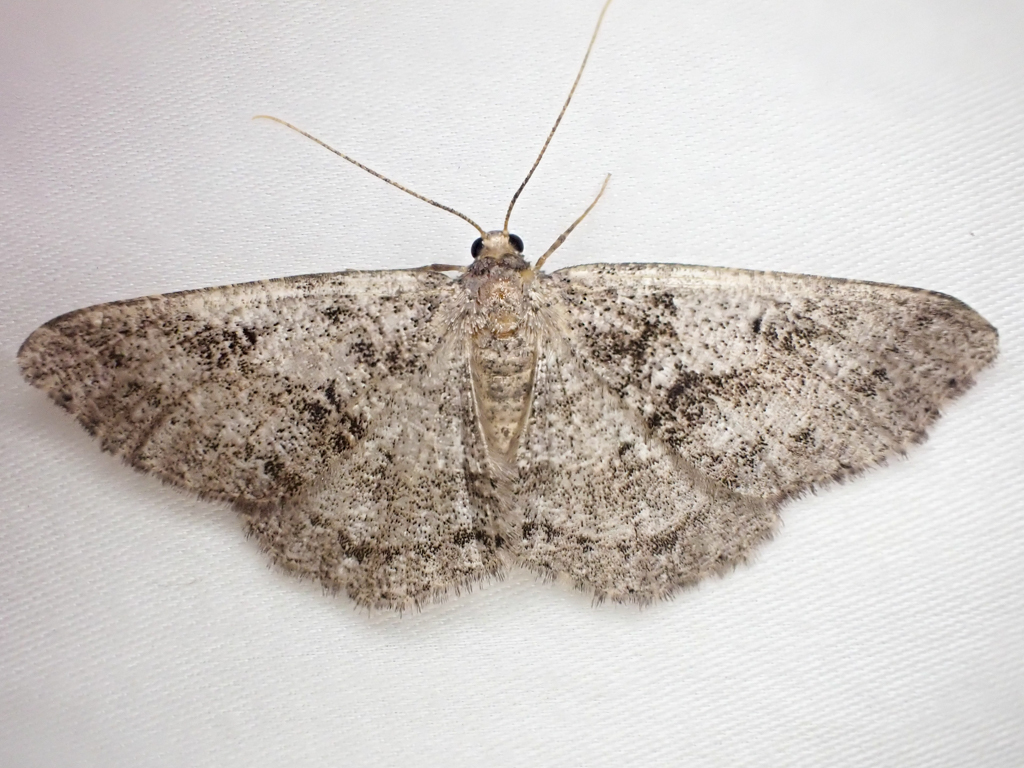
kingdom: Animalia
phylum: Arthropoda
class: Insecta
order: Lepidoptera
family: Geometridae
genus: Melanolophia
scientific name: Melanolophia imitata
